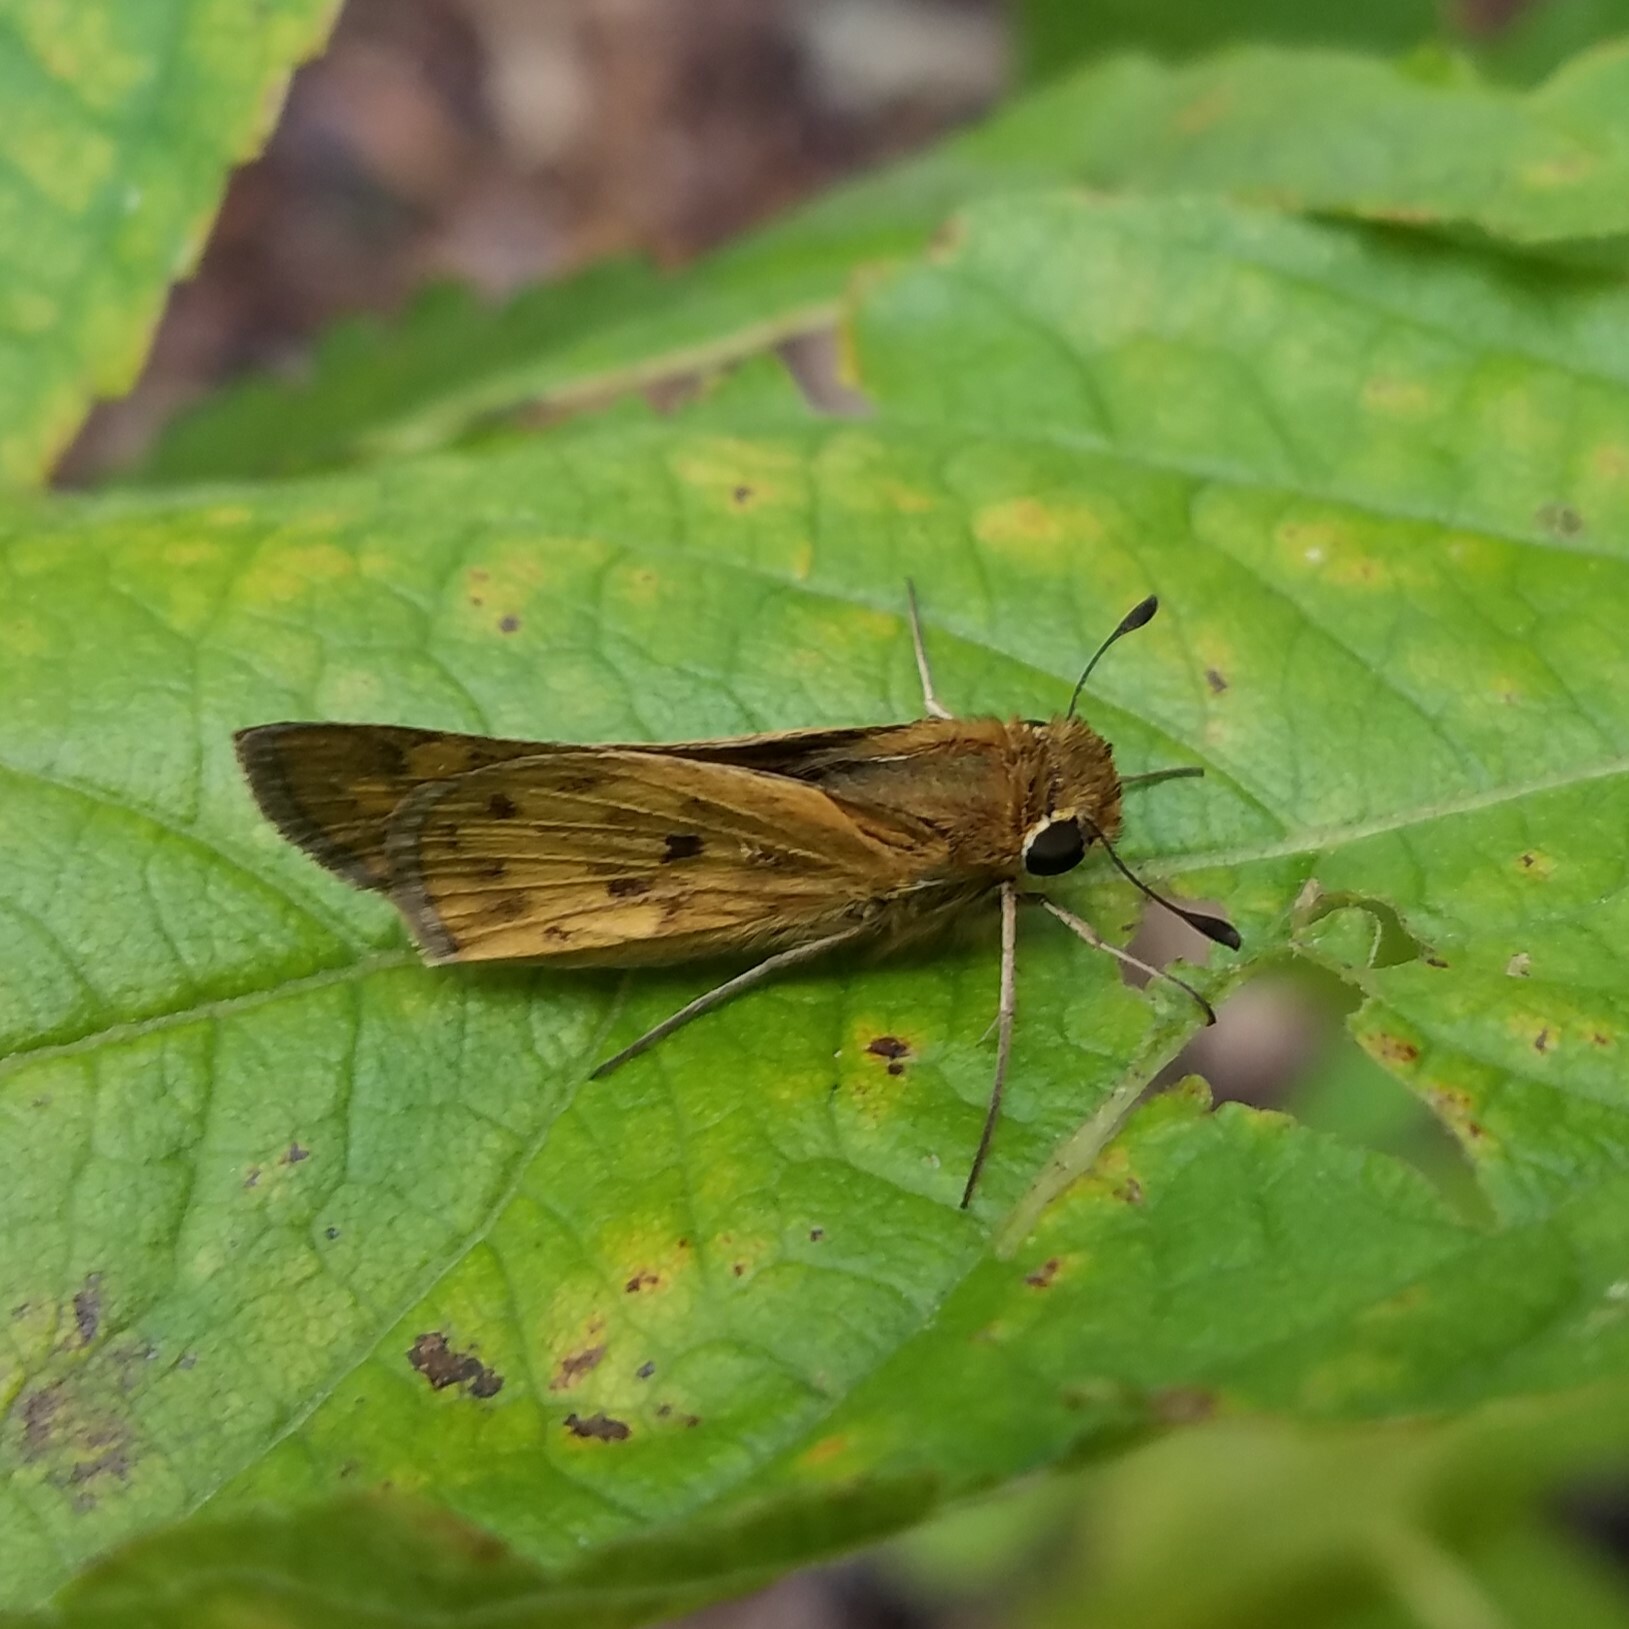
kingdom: Animalia
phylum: Arthropoda
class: Insecta
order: Lepidoptera
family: Hesperiidae
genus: Hylephila
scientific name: Hylephila phyleus
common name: Fiery skipper
